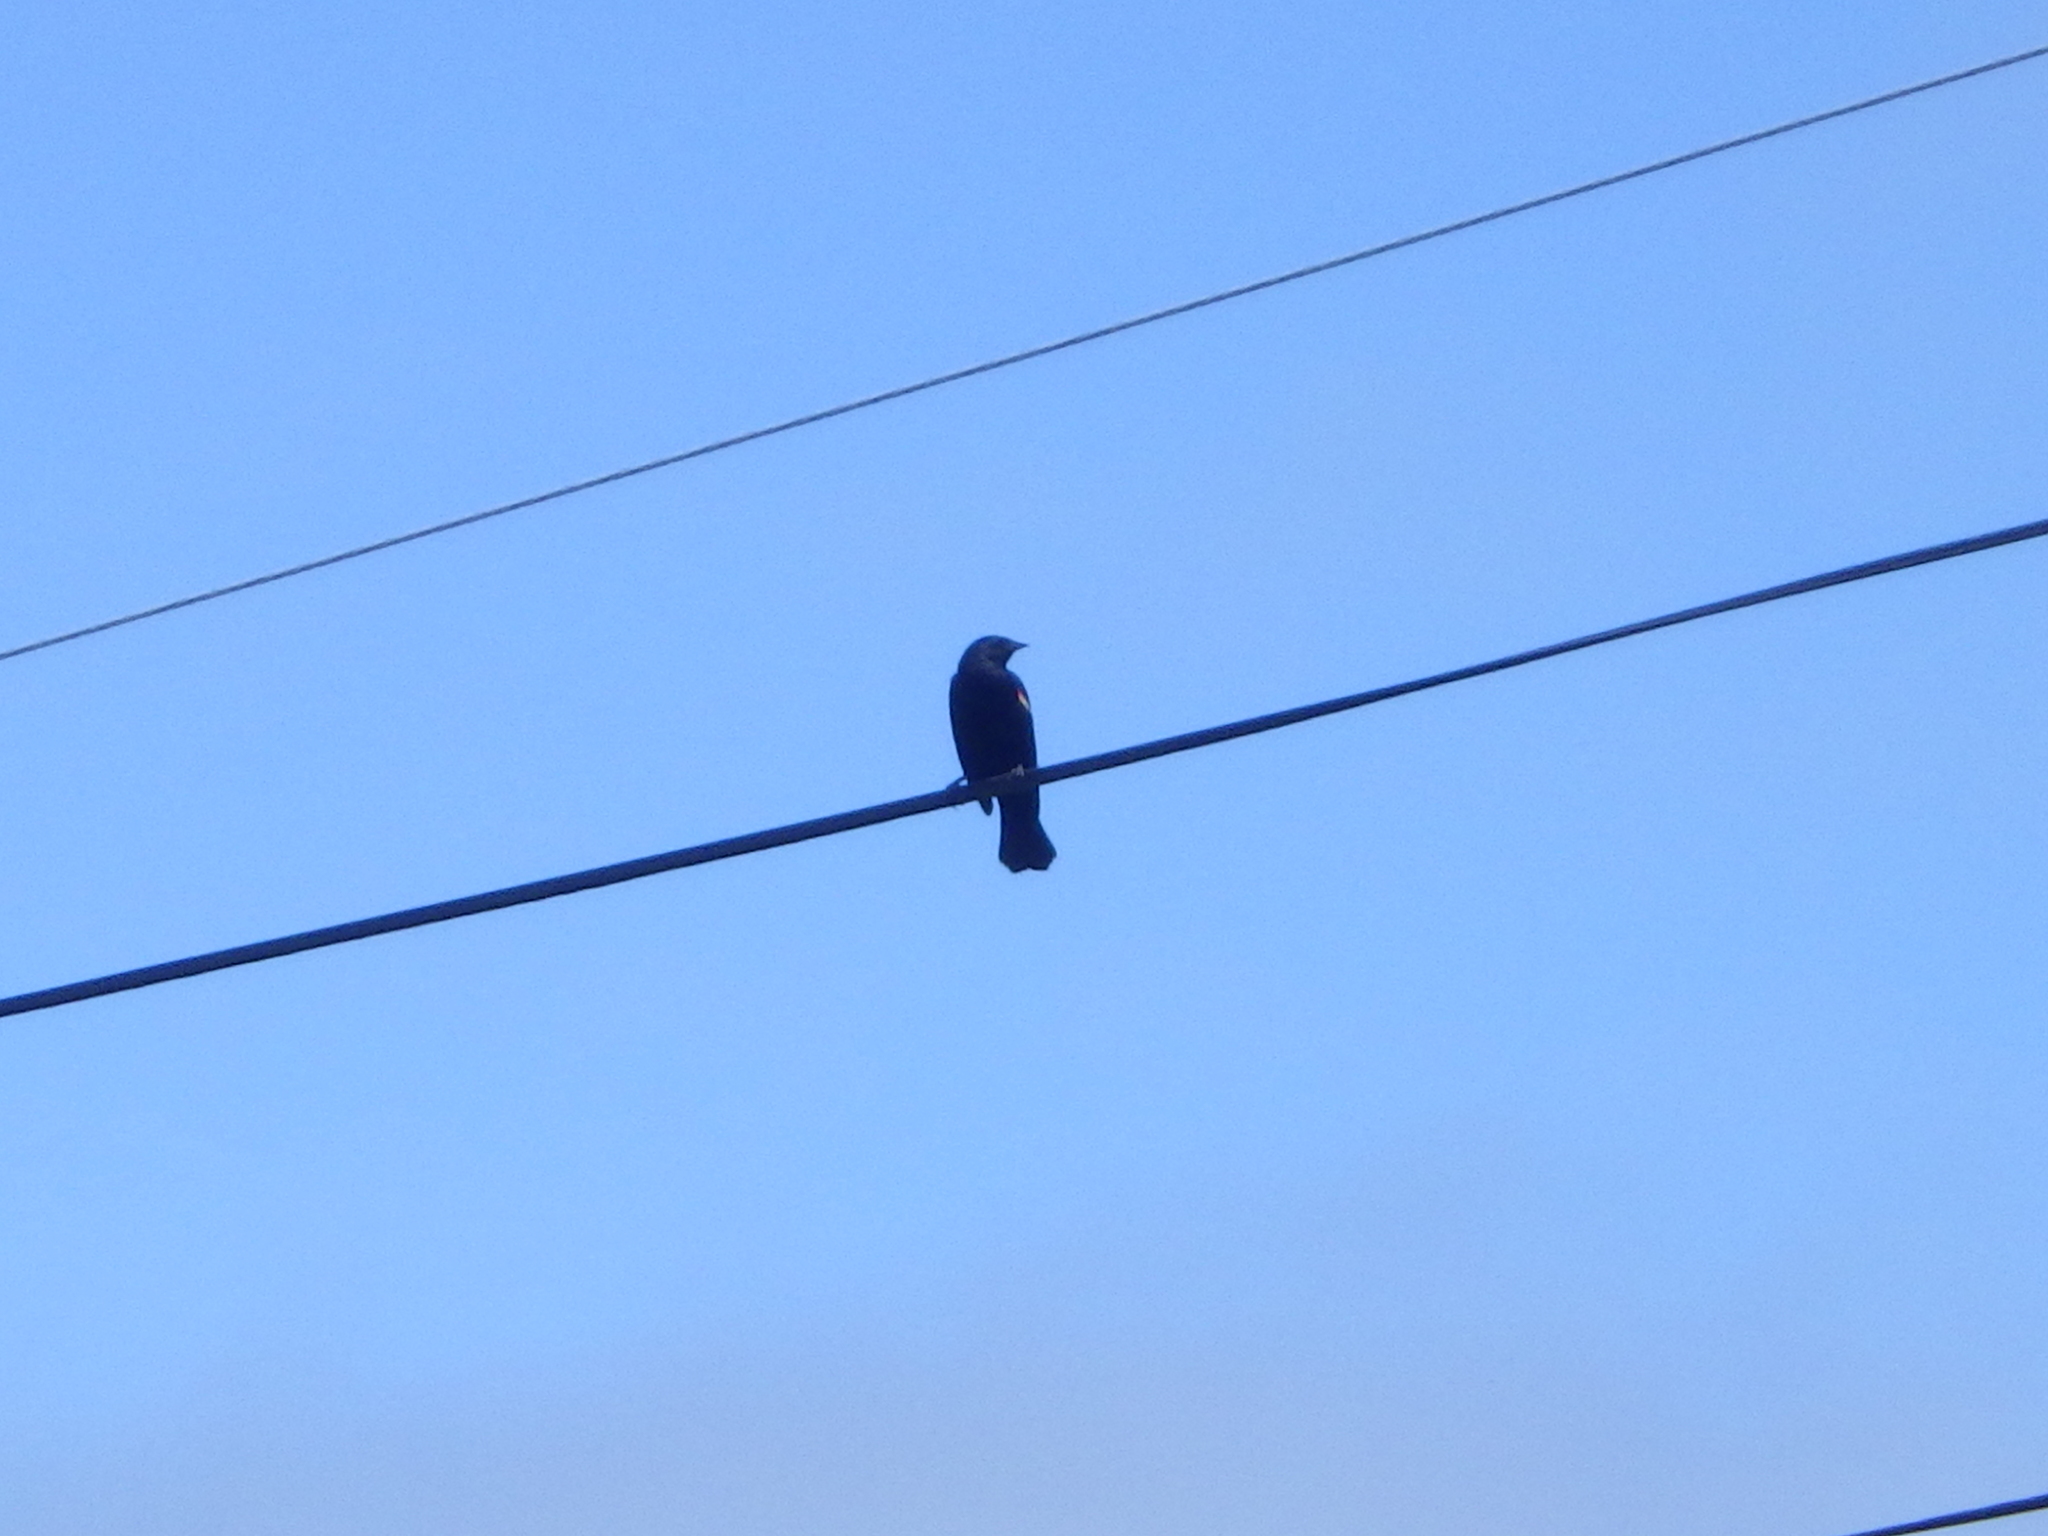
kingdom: Animalia
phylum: Chordata
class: Aves
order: Passeriformes
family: Icteridae
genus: Agelaius
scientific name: Agelaius phoeniceus
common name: Red-winged blackbird
